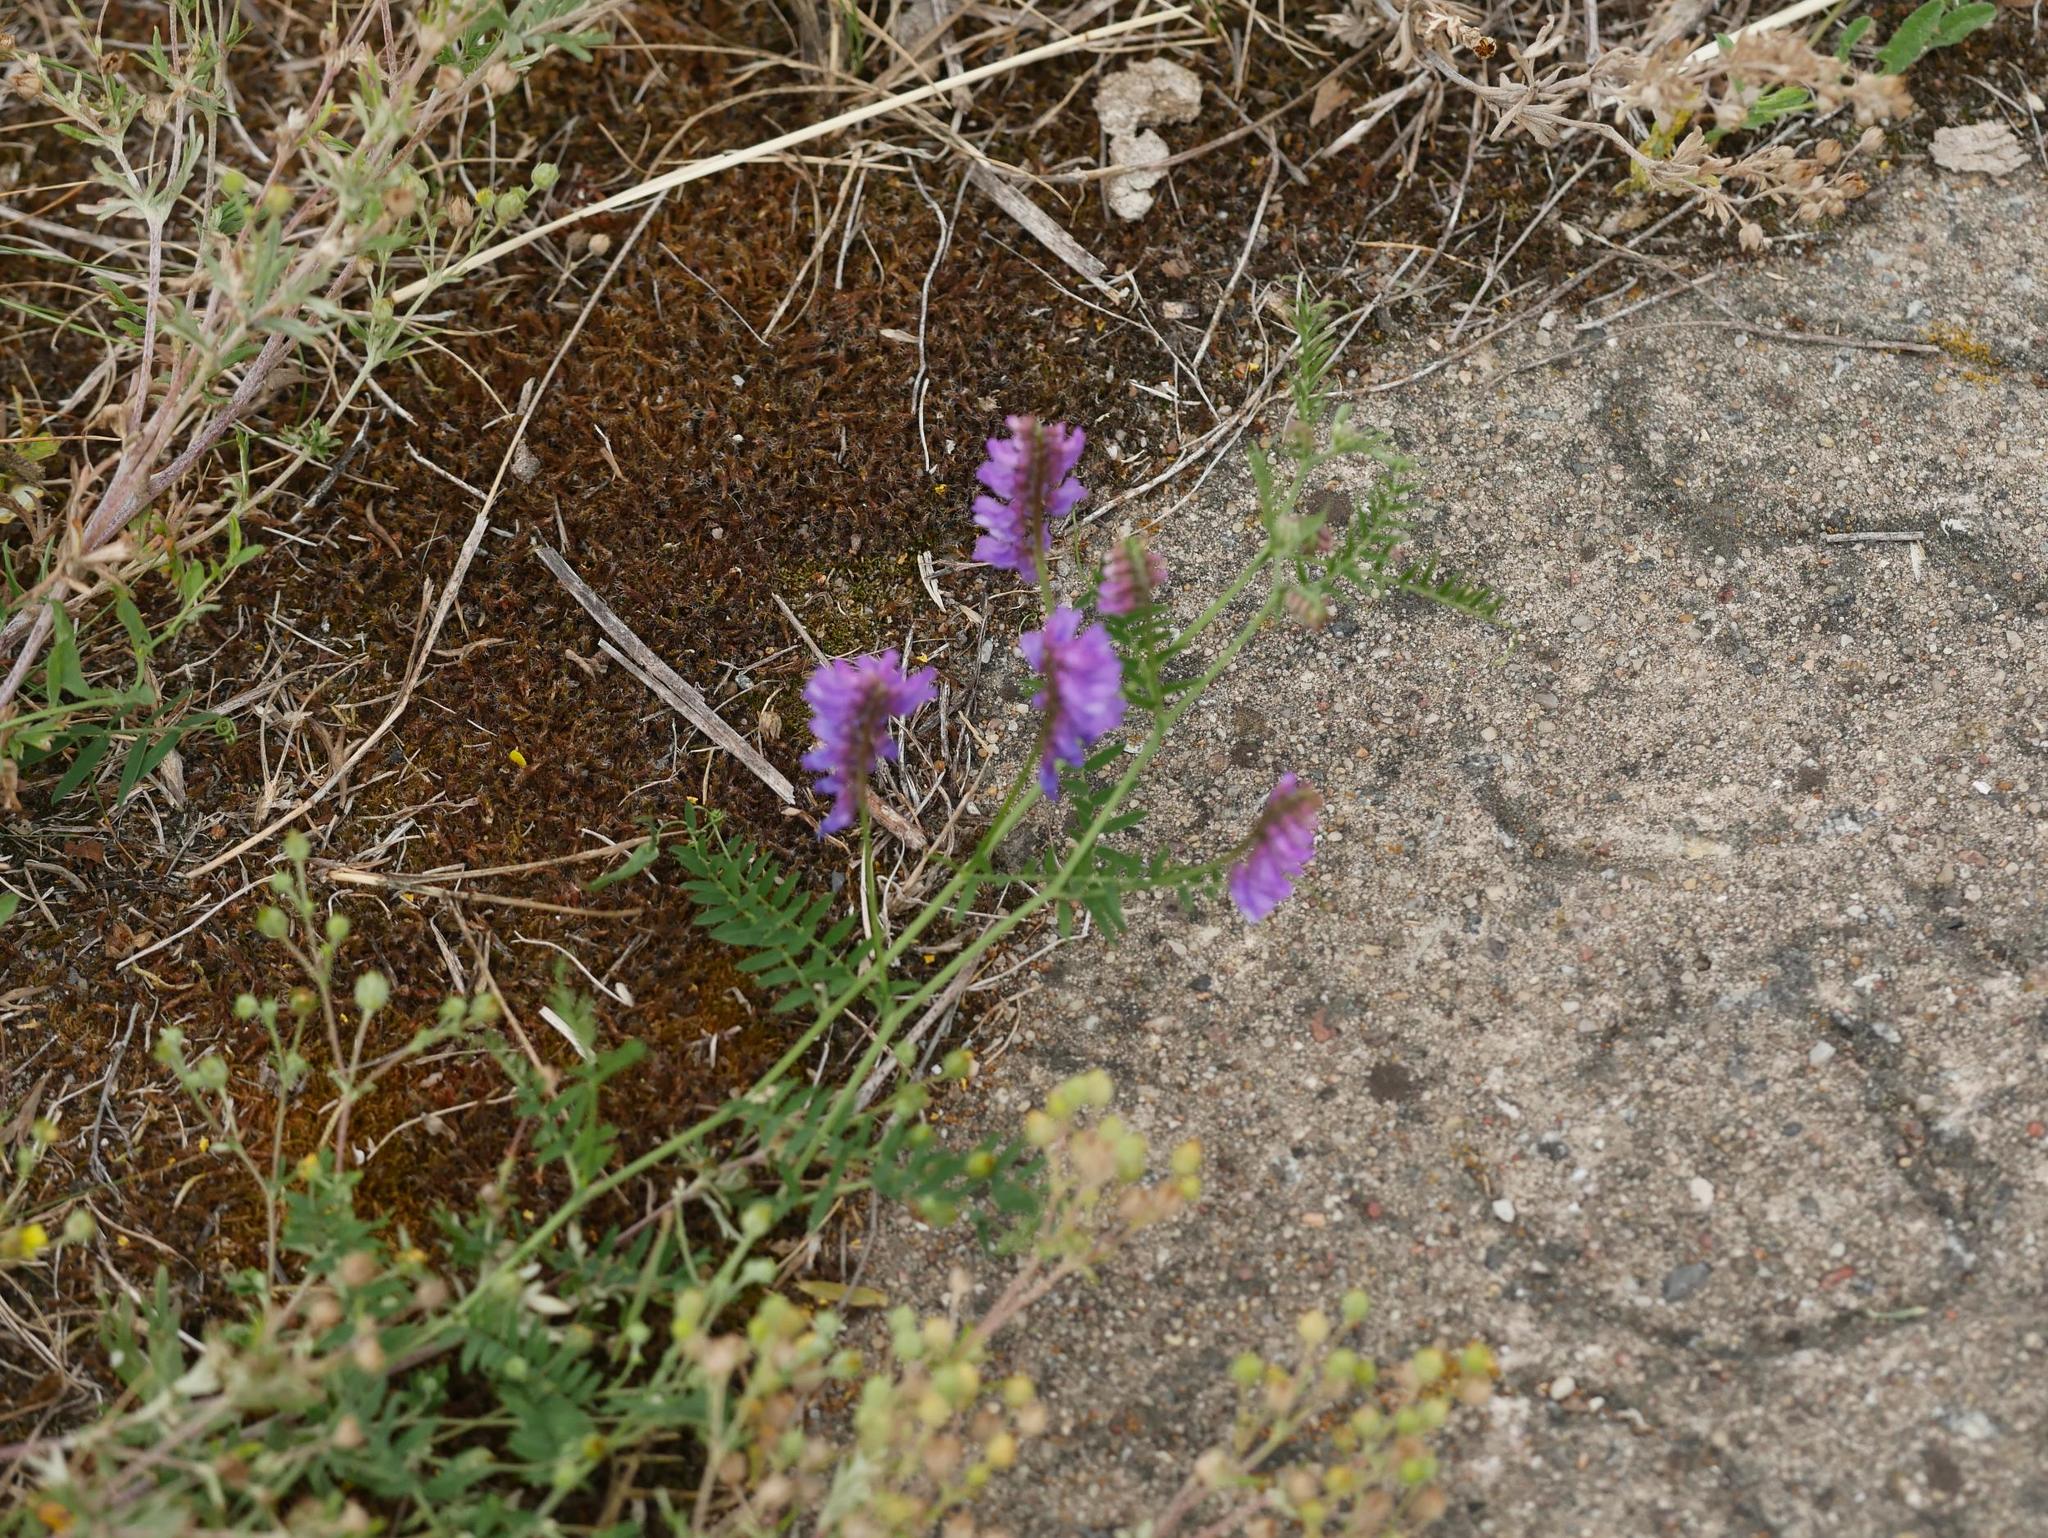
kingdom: Plantae
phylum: Tracheophyta
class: Magnoliopsida
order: Fabales
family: Fabaceae
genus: Vicia
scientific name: Vicia cracca
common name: Bird vetch
